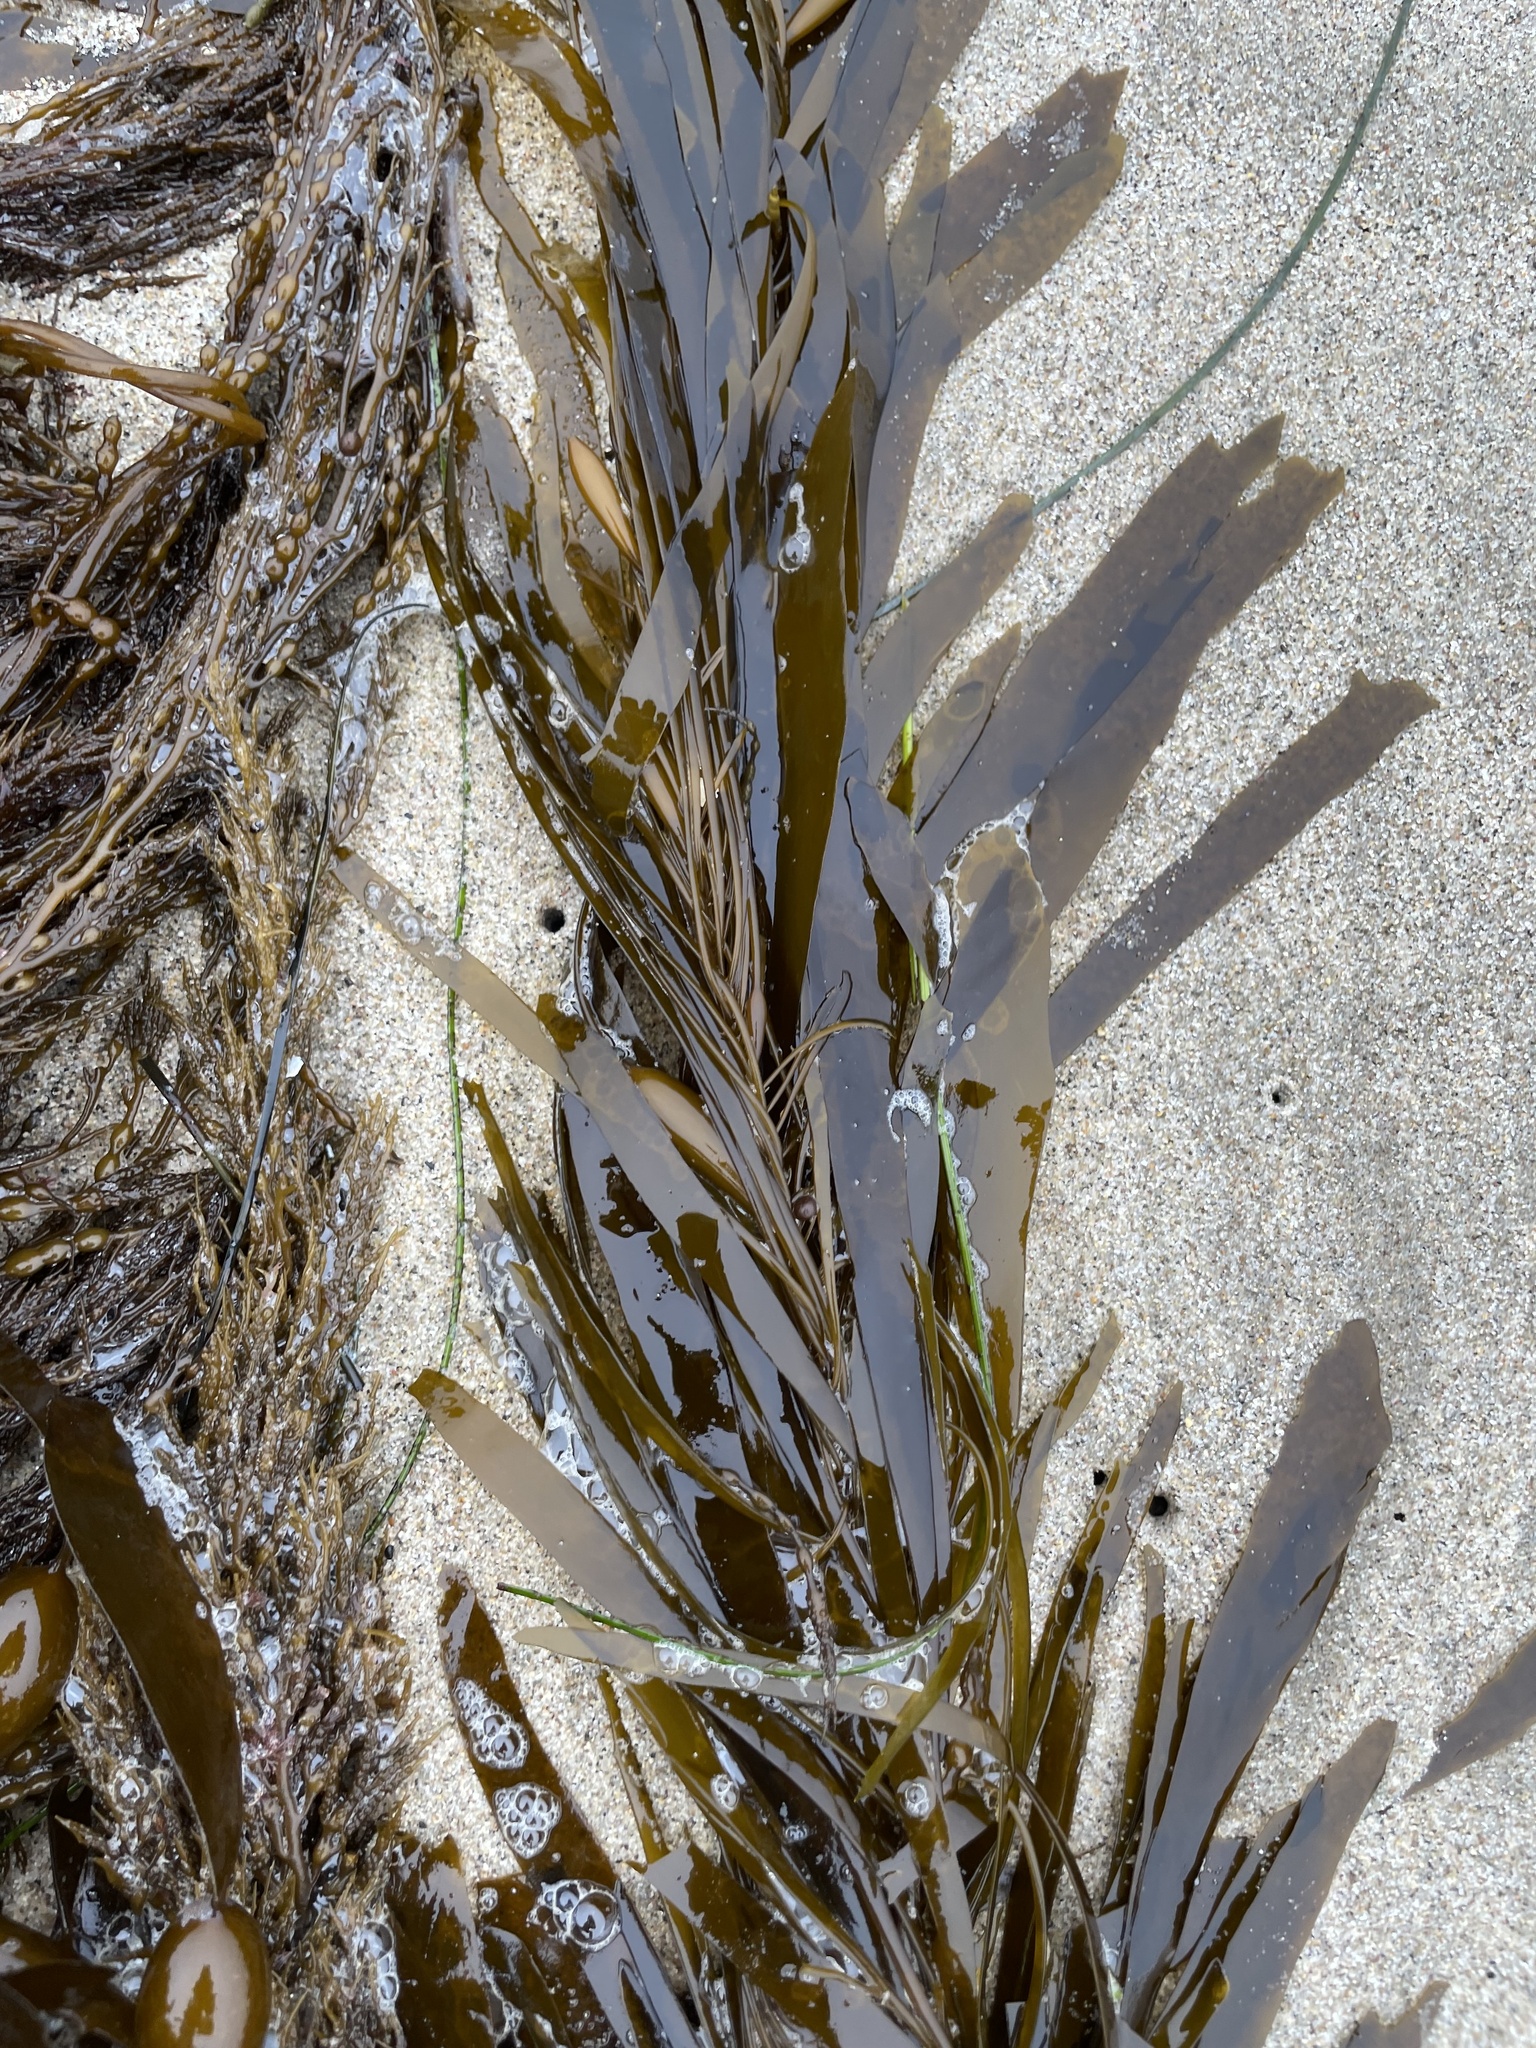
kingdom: Chromista
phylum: Ochrophyta
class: Phaeophyceae
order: Laminariales
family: Lessoniaceae
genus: Egregia
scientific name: Egregia menziesii
